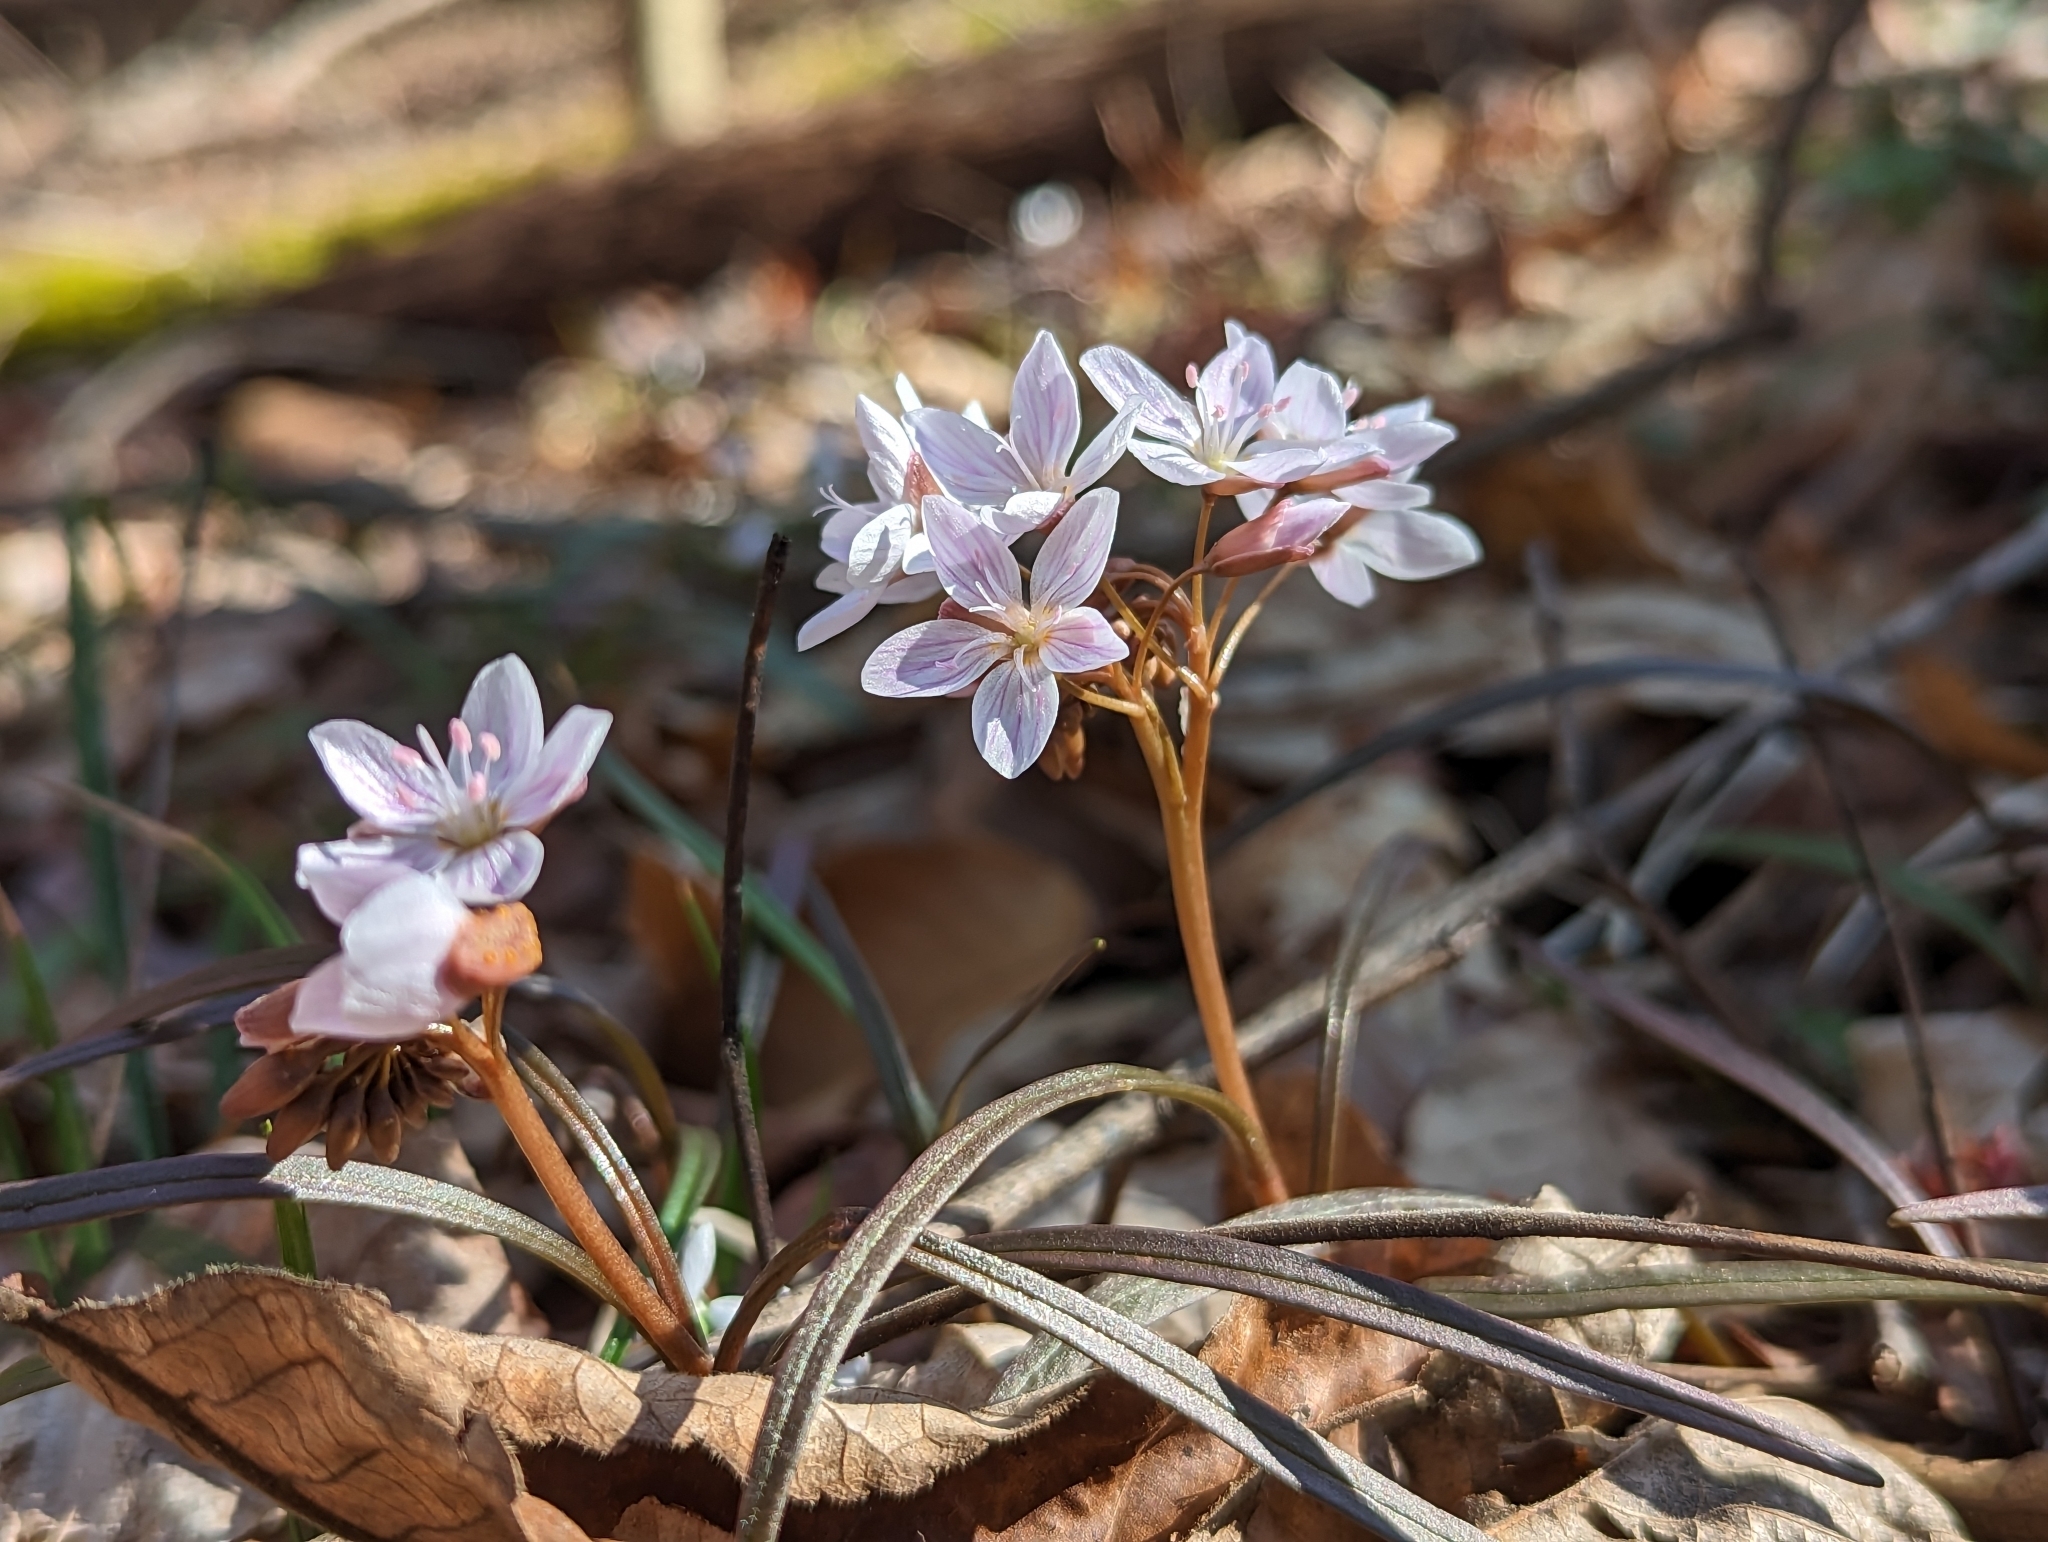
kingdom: Plantae
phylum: Tracheophyta
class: Magnoliopsida
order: Caryophyllales
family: Montiaceae
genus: Claytonia
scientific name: Claytonia virginica
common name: Virginia springbeauty
